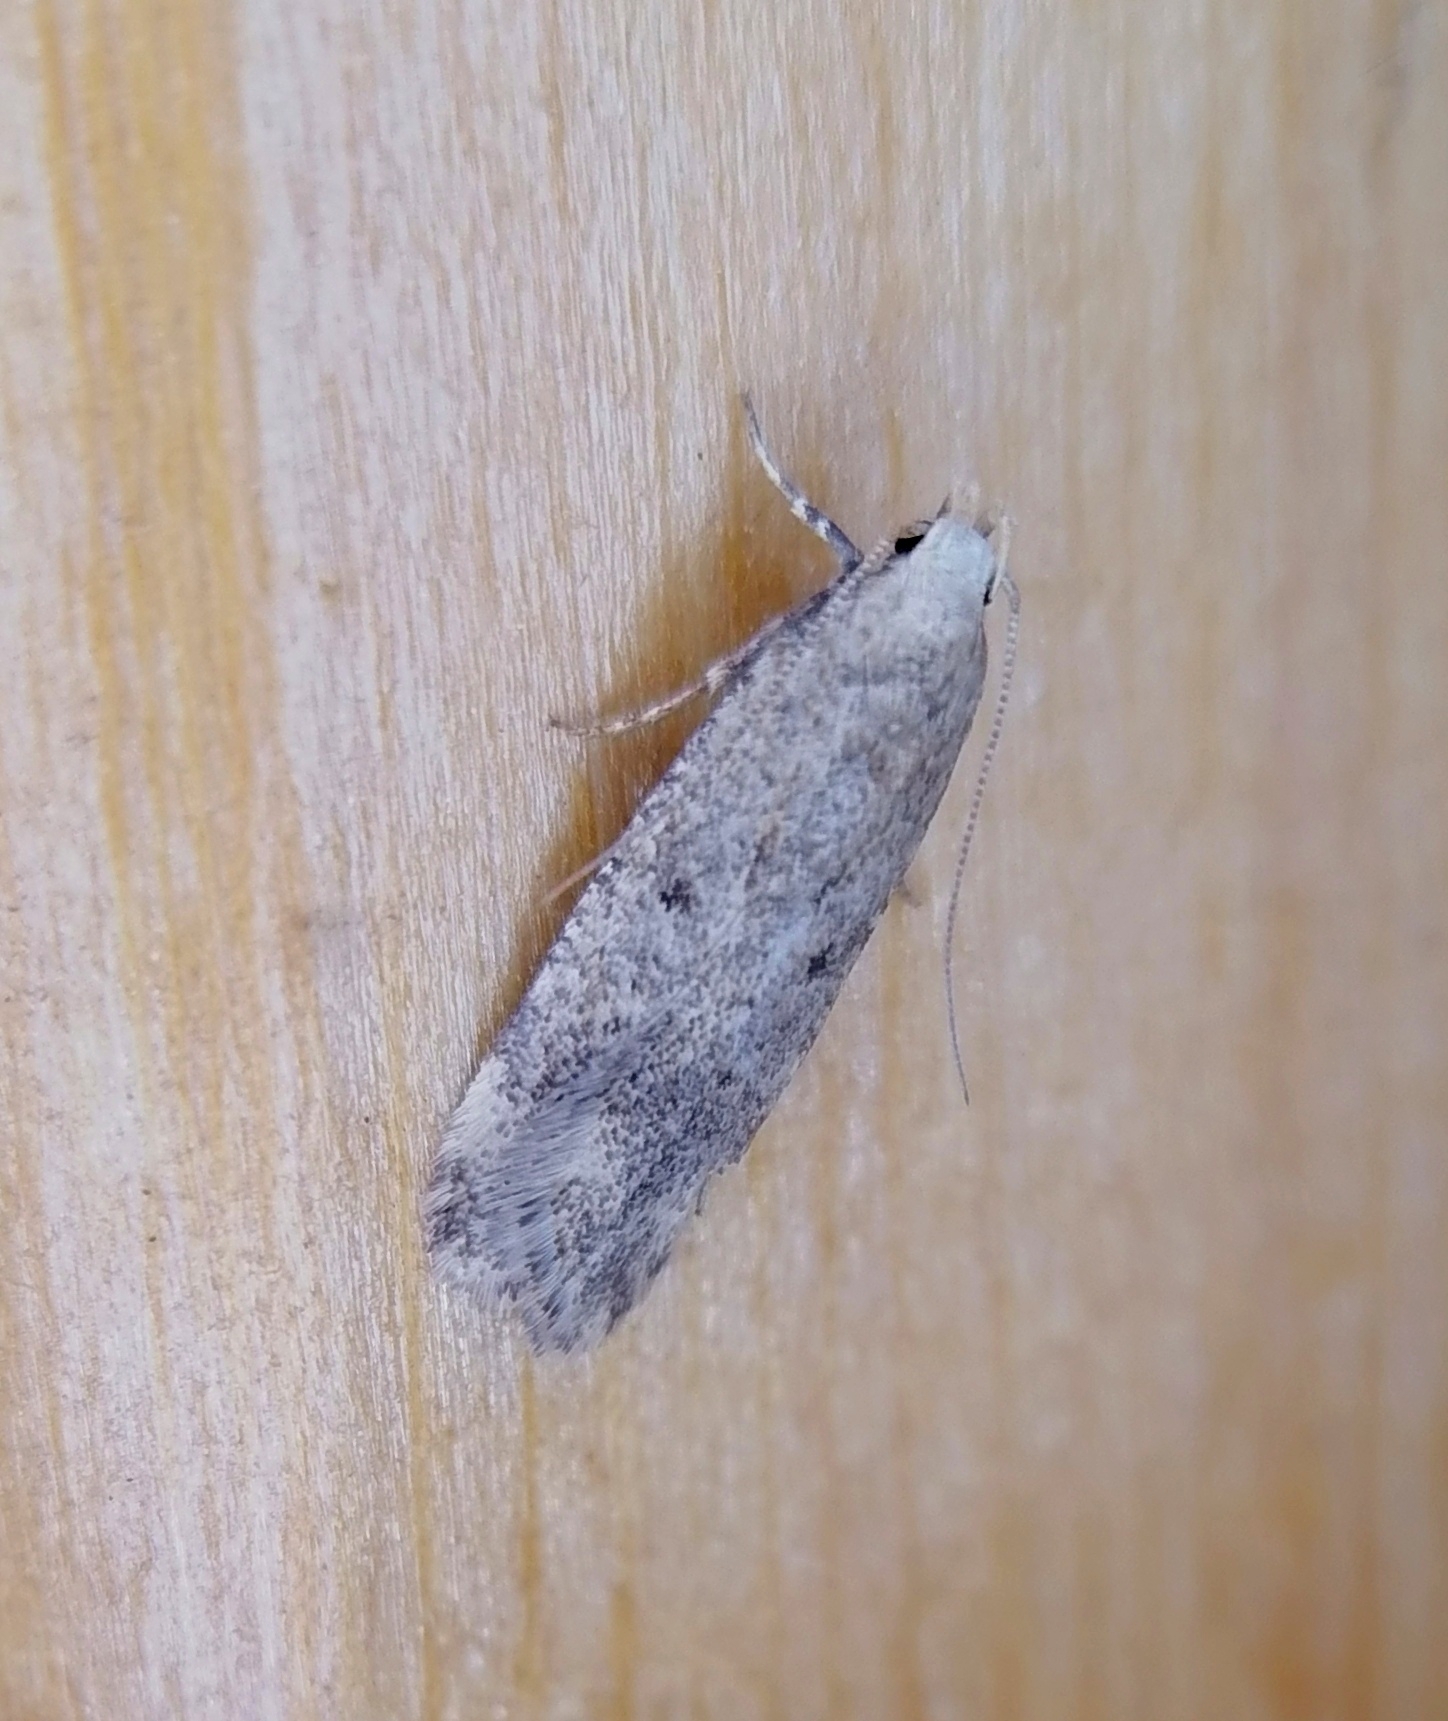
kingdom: Animalia
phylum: Arthropoda
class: Insecta
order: Lepidoptera
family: Gelechiidae
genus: Pexicopia
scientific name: Pexicopia malvella
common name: Hollyhock seed moth
